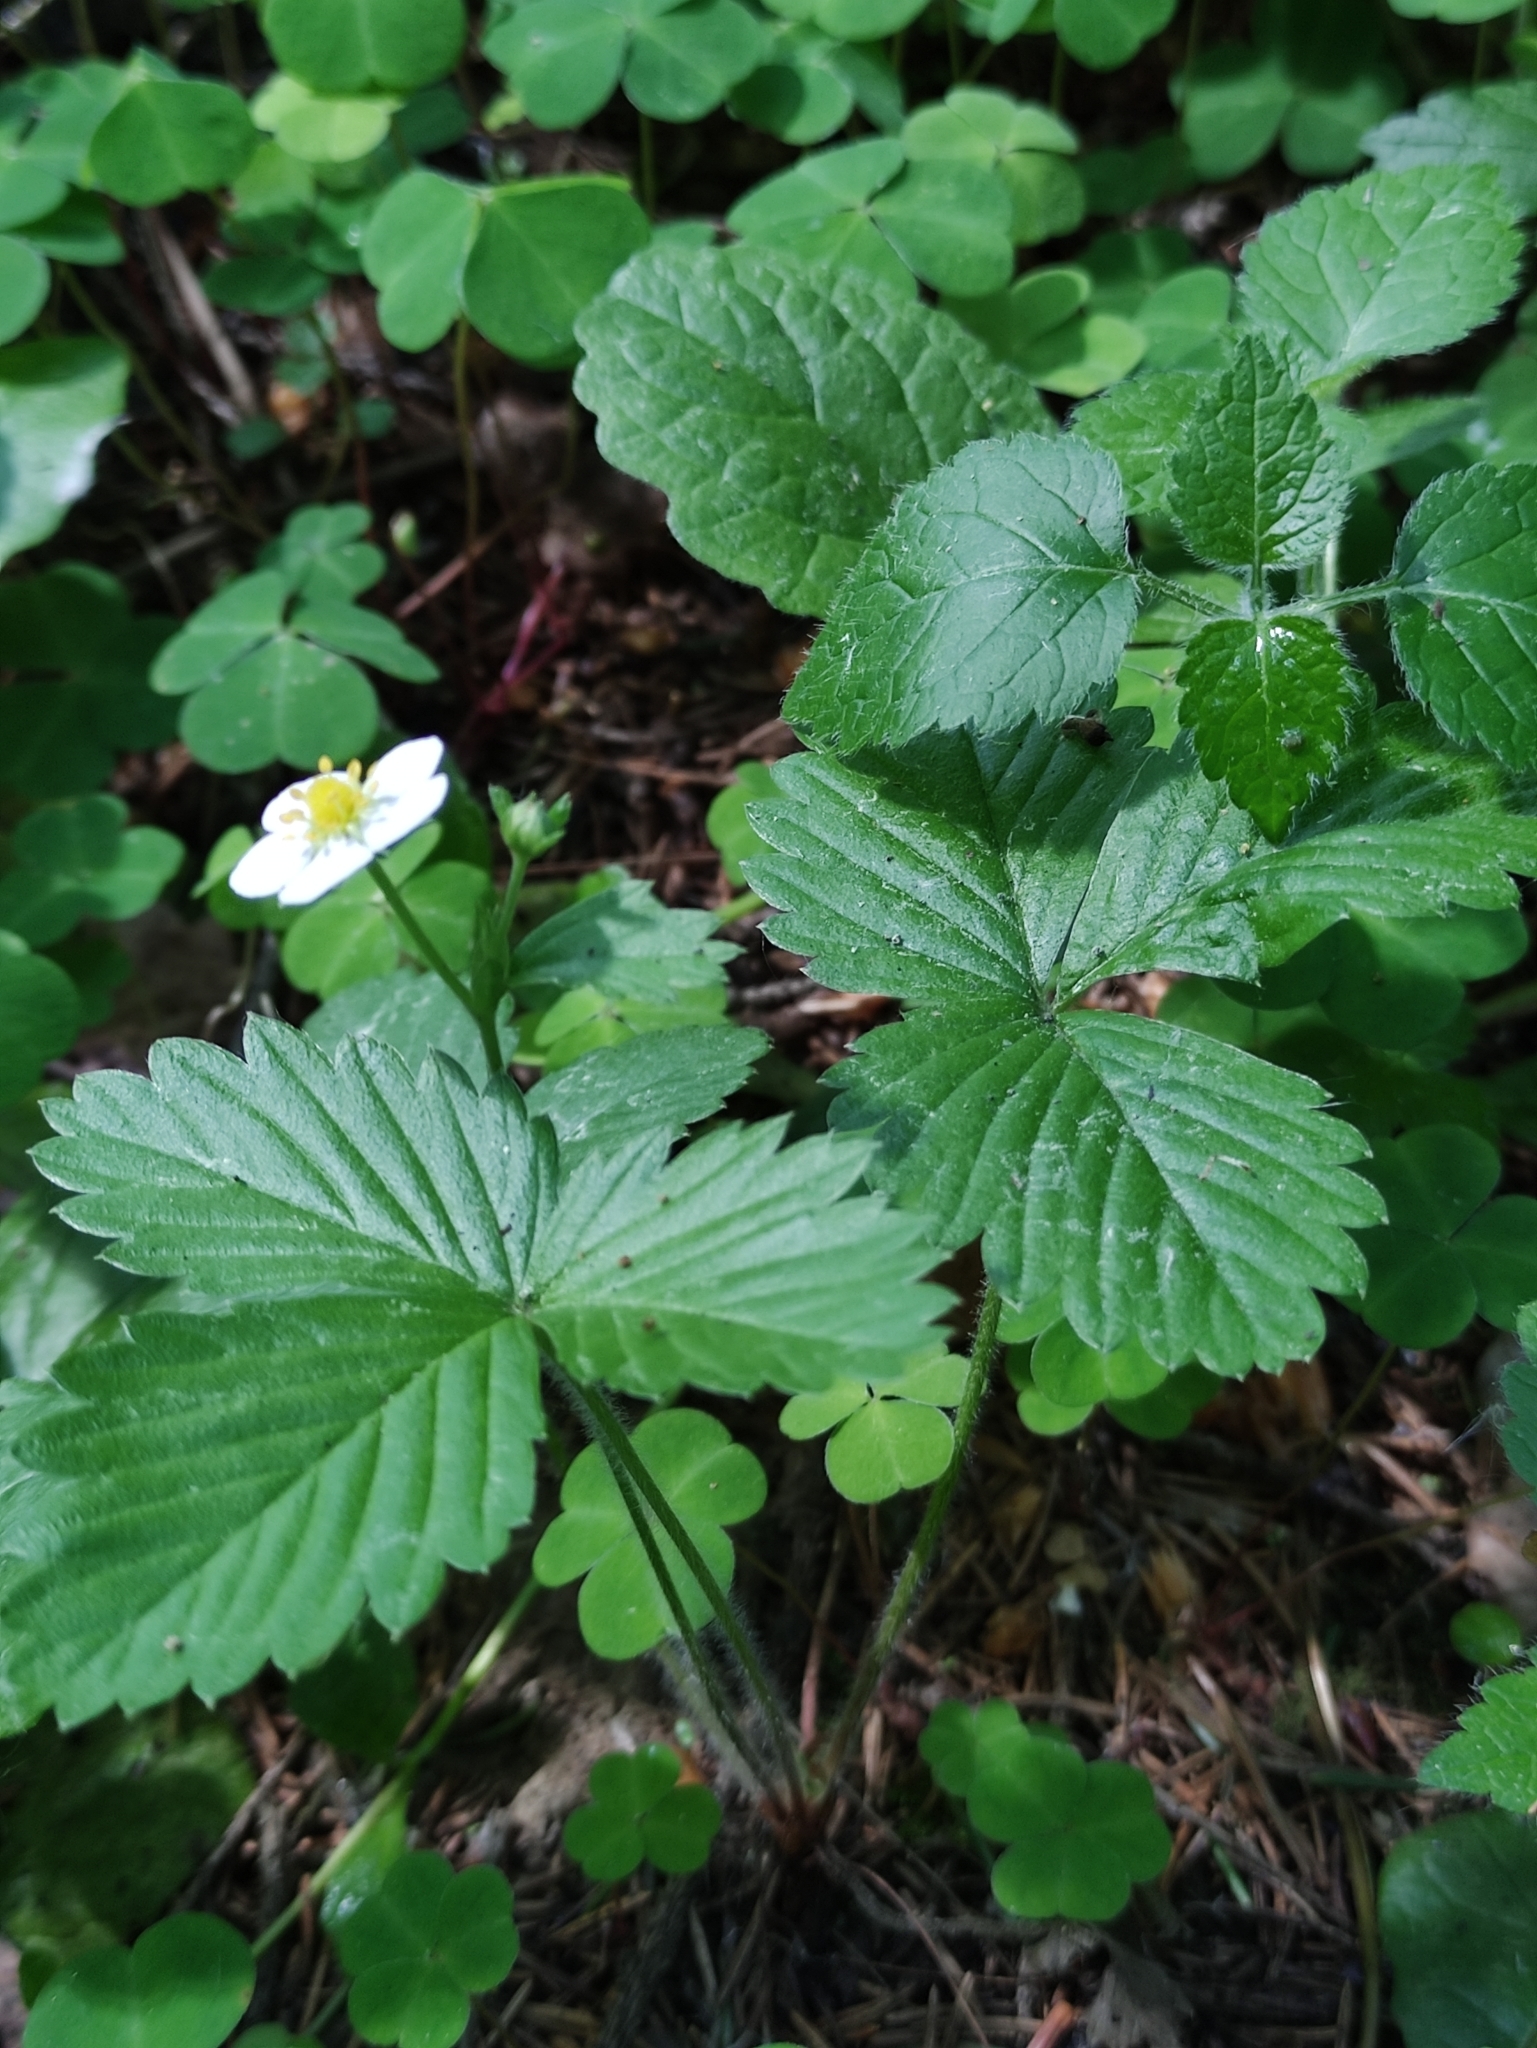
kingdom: Plantae
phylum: Tracheophyta
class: Magnoliopsida
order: Rosales
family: Rosaceae
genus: Fragaria
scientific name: Fragaria vesca
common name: Wild strawberry
